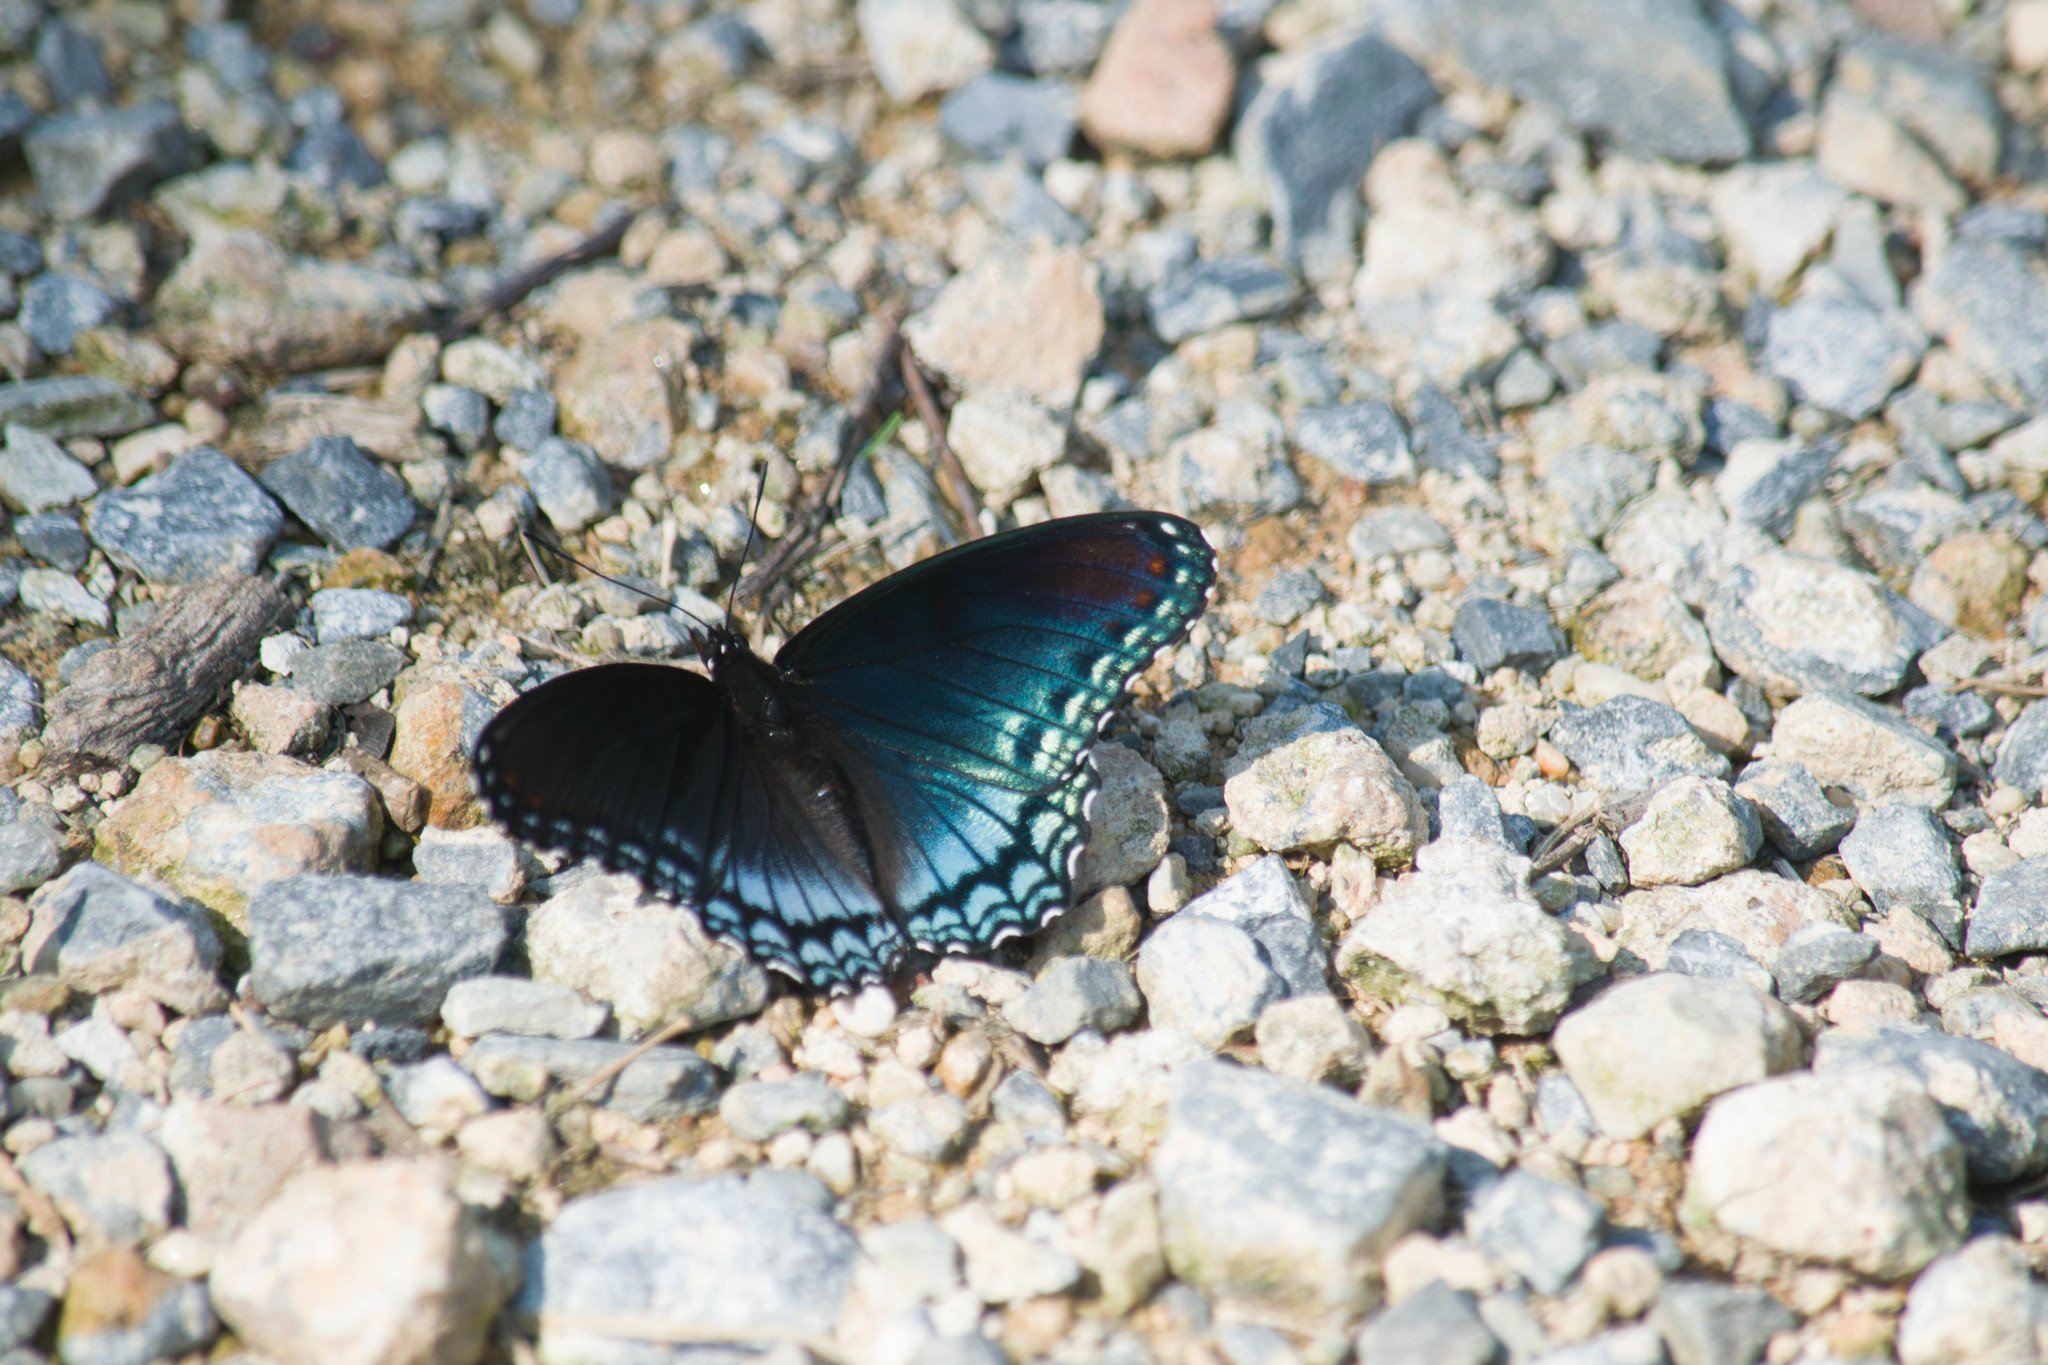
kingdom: Animalia
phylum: Arthropoda
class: Insecta
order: Lepidoptera
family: Nymphalidae
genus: Limenitis
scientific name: Limenitis astyanax
